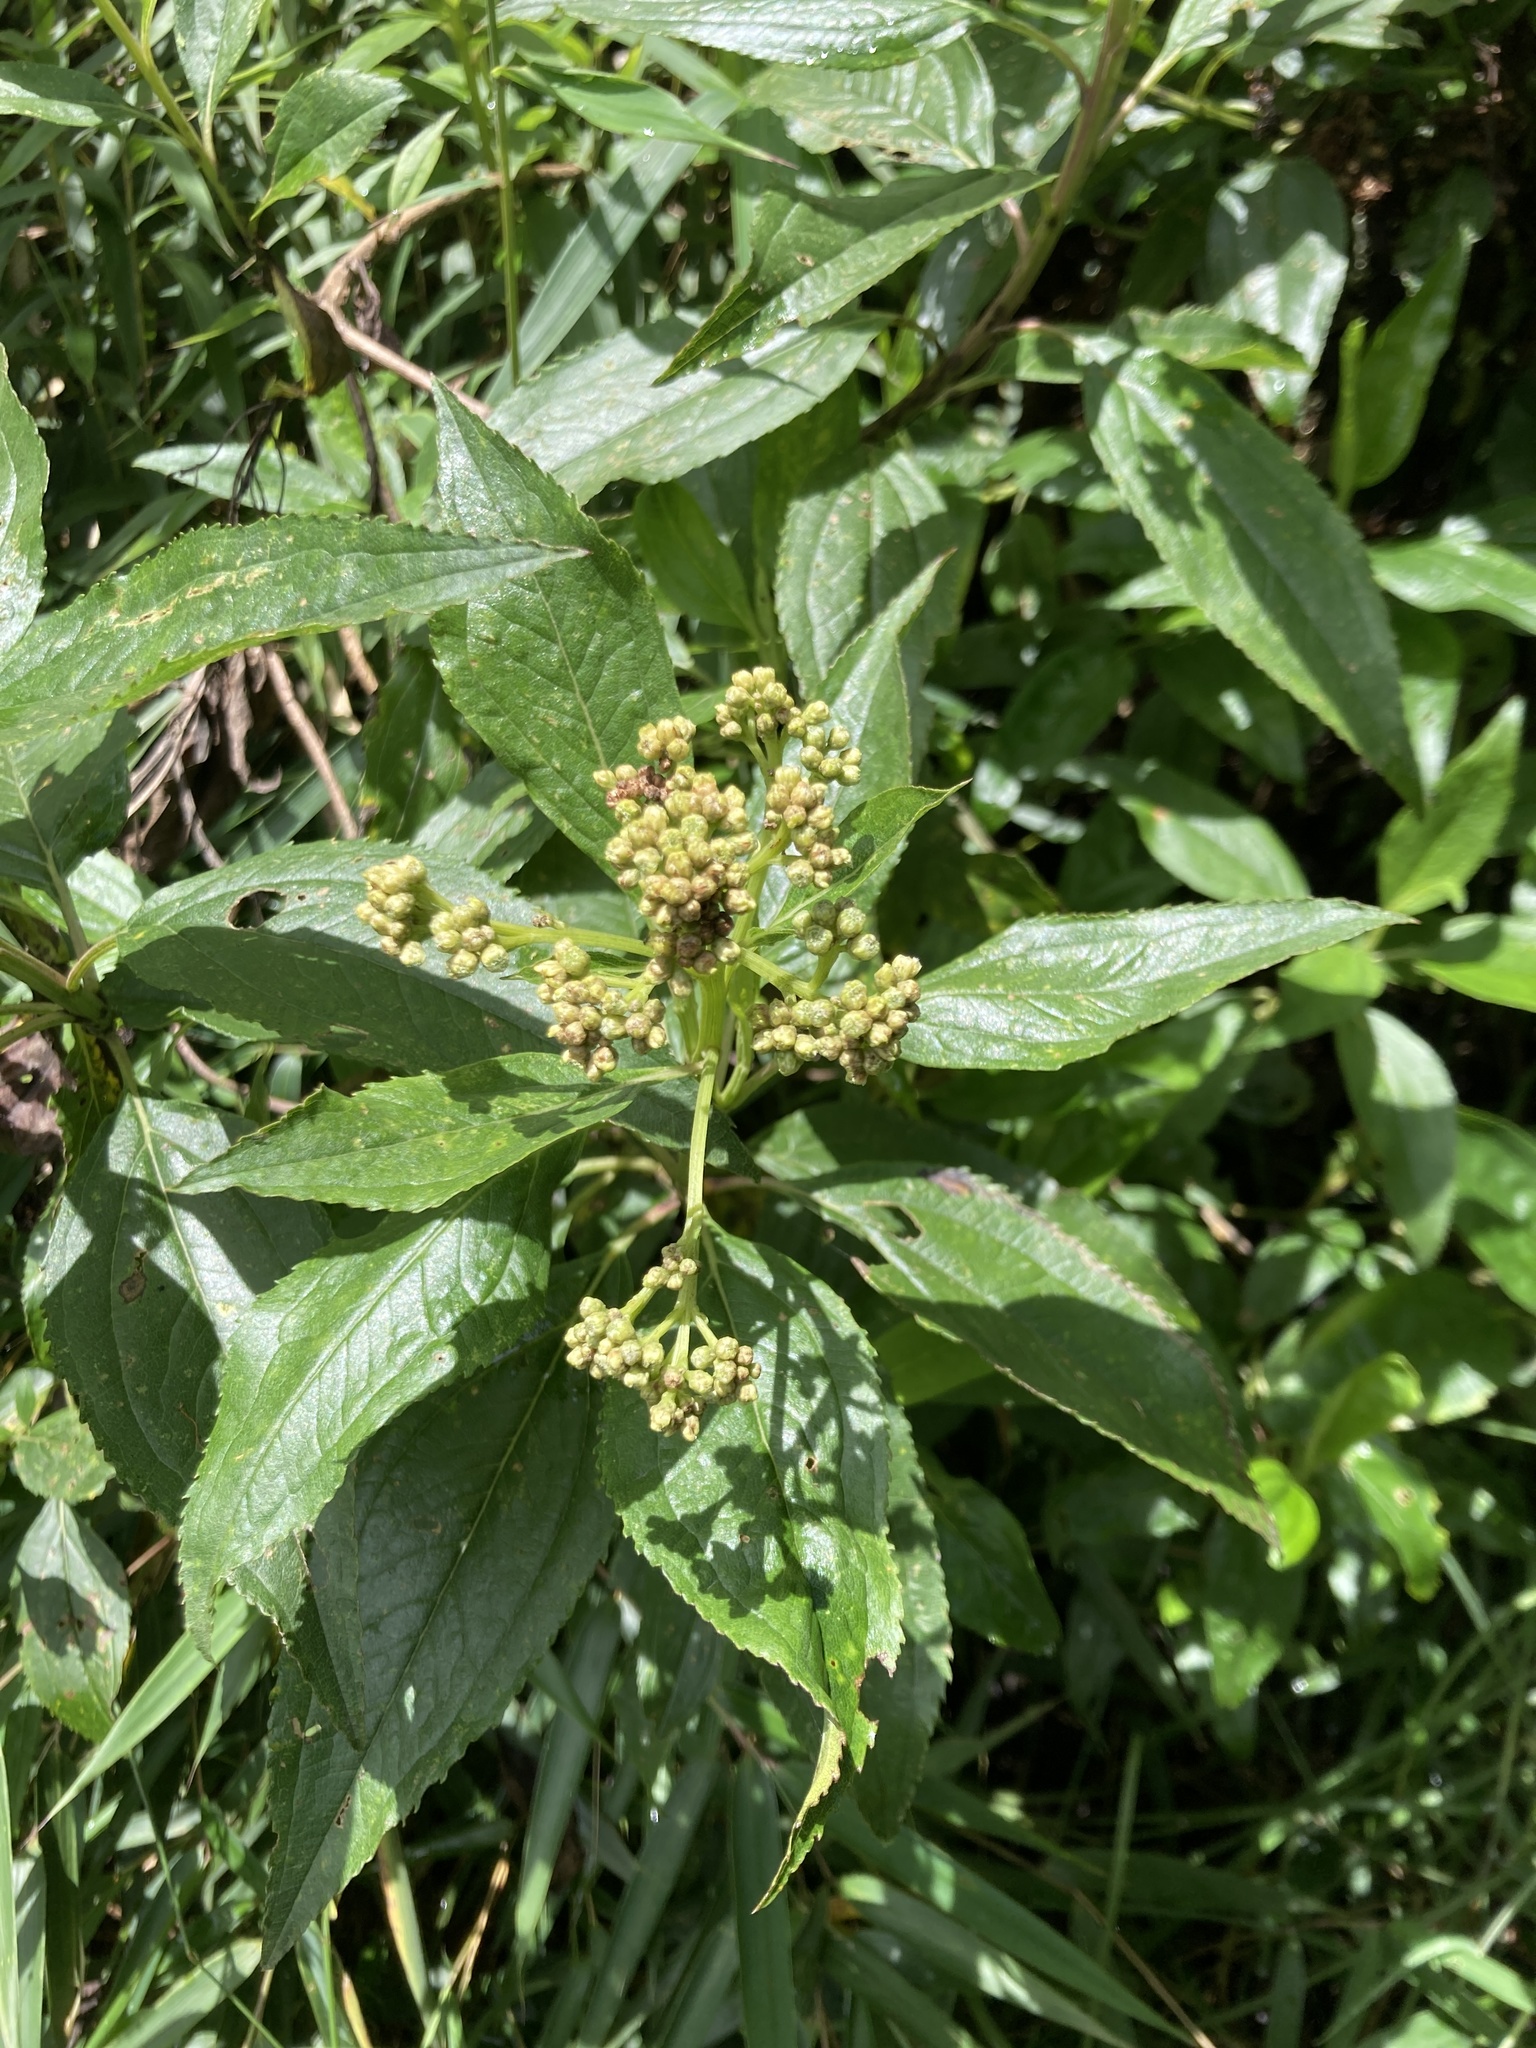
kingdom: Plantae
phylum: Tracheophyta
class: Magnoliopsida
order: Asterales
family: Asteraceae
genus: Baccharis
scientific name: Baccharis latifolia
